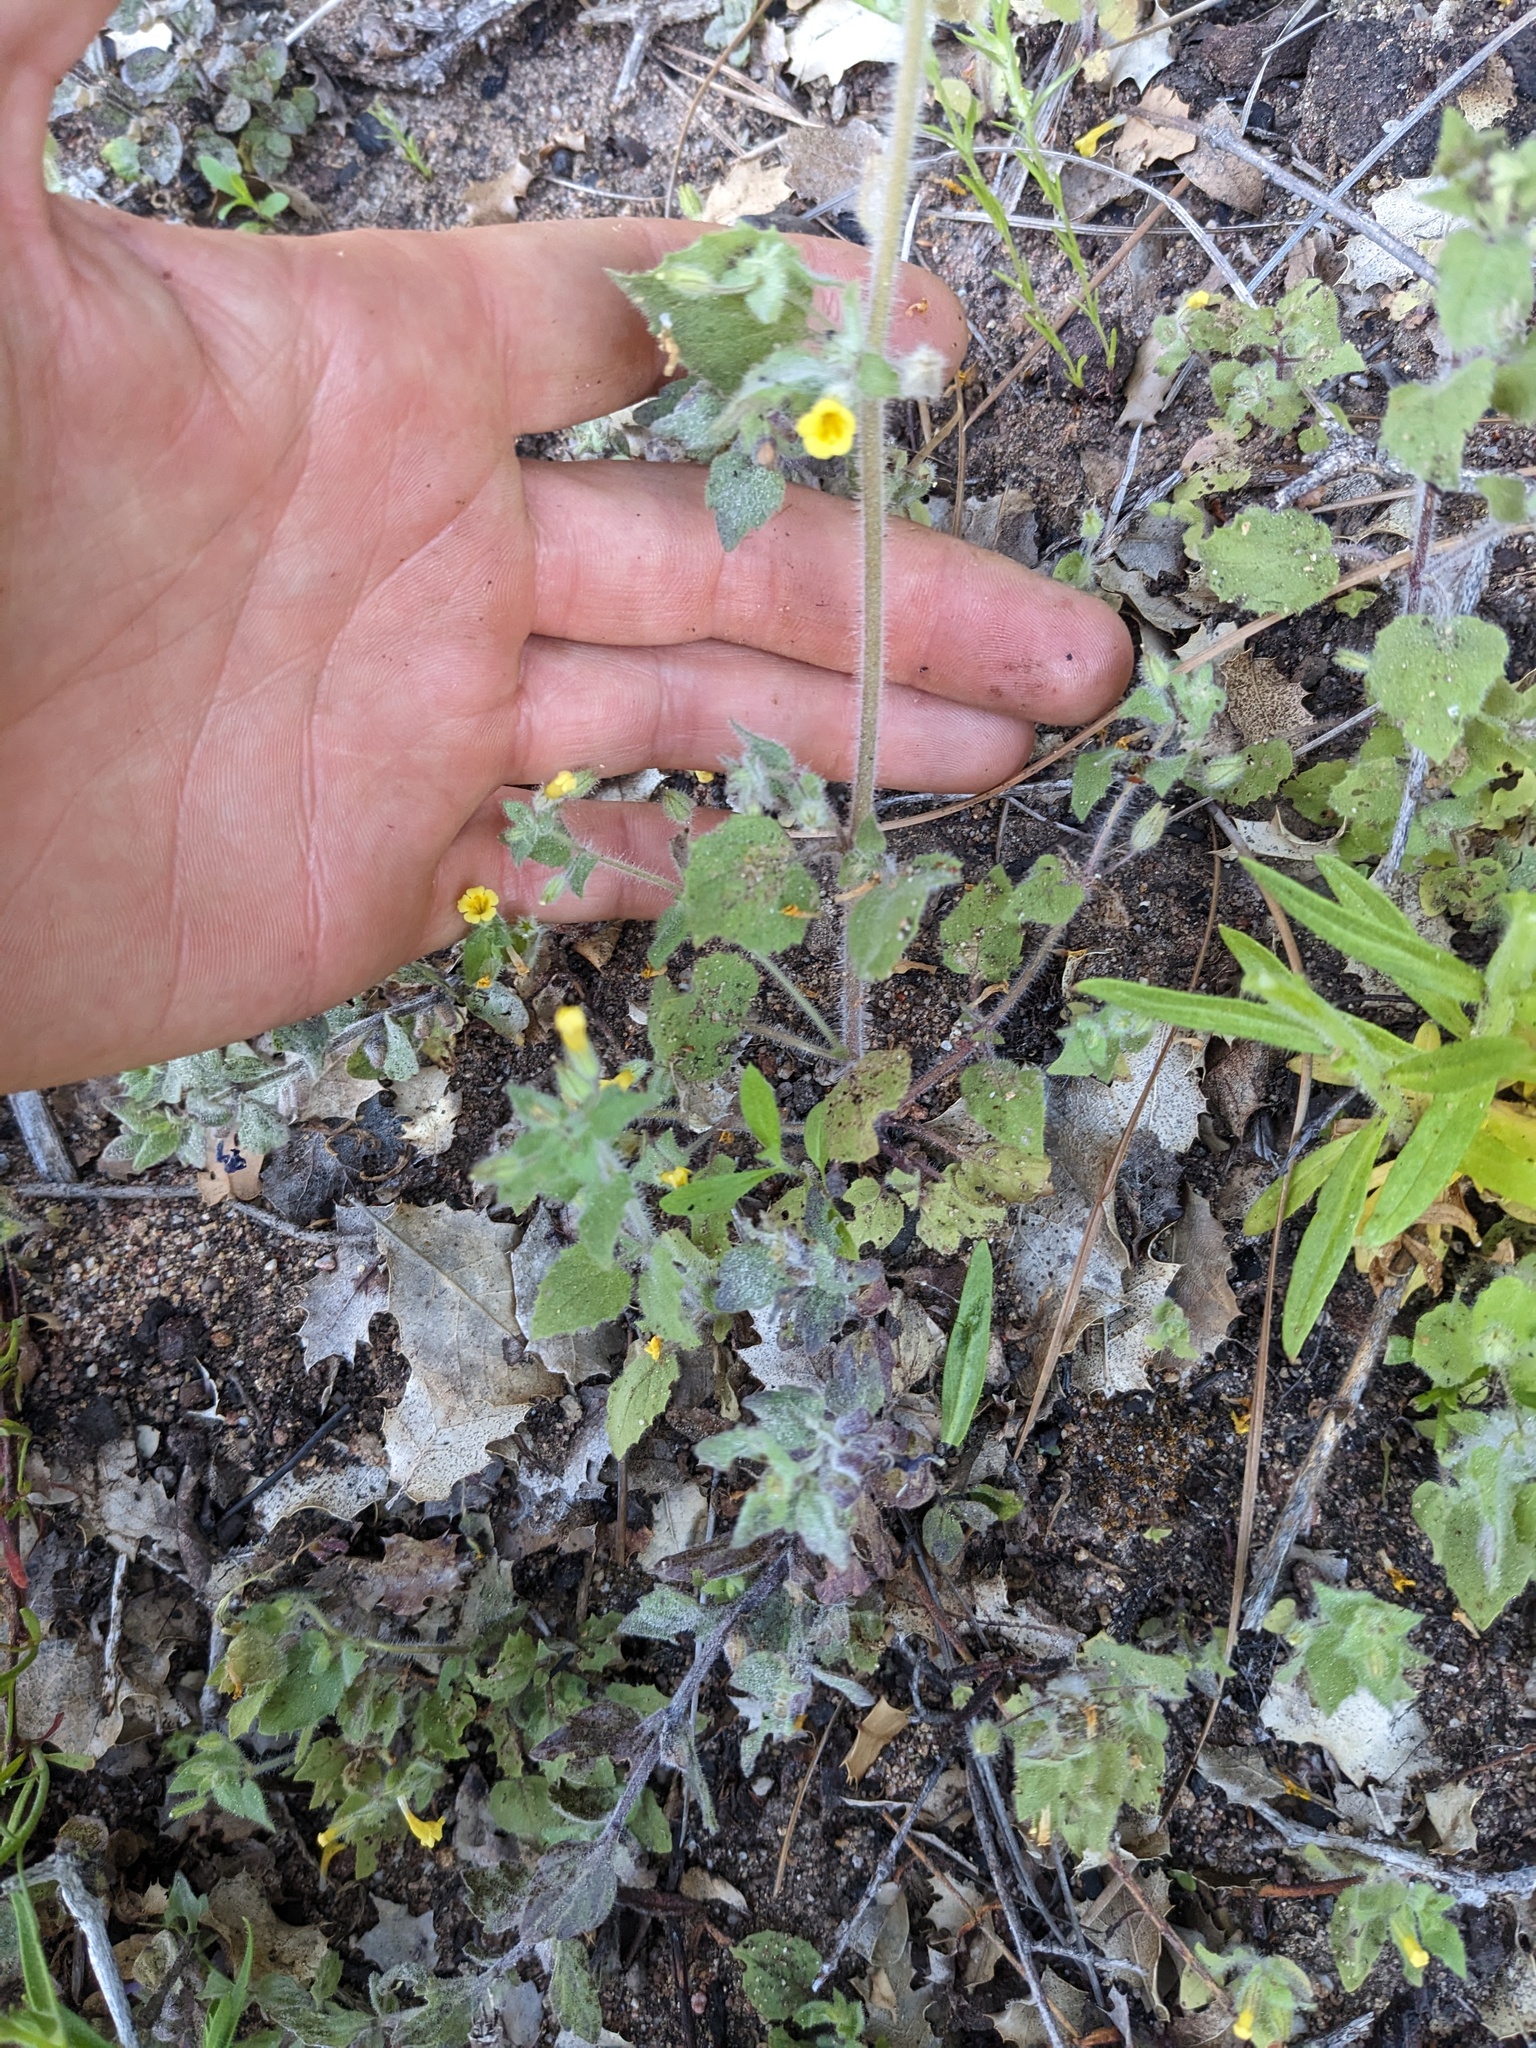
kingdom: Plantae
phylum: Tracheophyta
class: Magnoliopsida
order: Lamiales
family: Phrymaceae
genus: Erythranthe
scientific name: Erythranthe floribunda
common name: Floriferous monkeyflower
